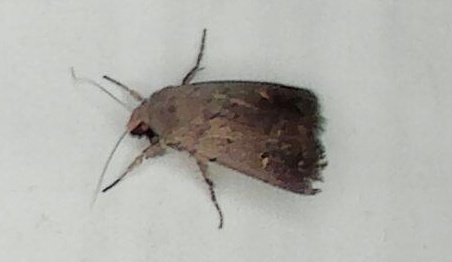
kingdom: Animalia
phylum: Arthropoda
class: Insecta
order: Lepidoptera
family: Noctuidae
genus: Proteuxoa
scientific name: Proteuxoa hypochalchis
